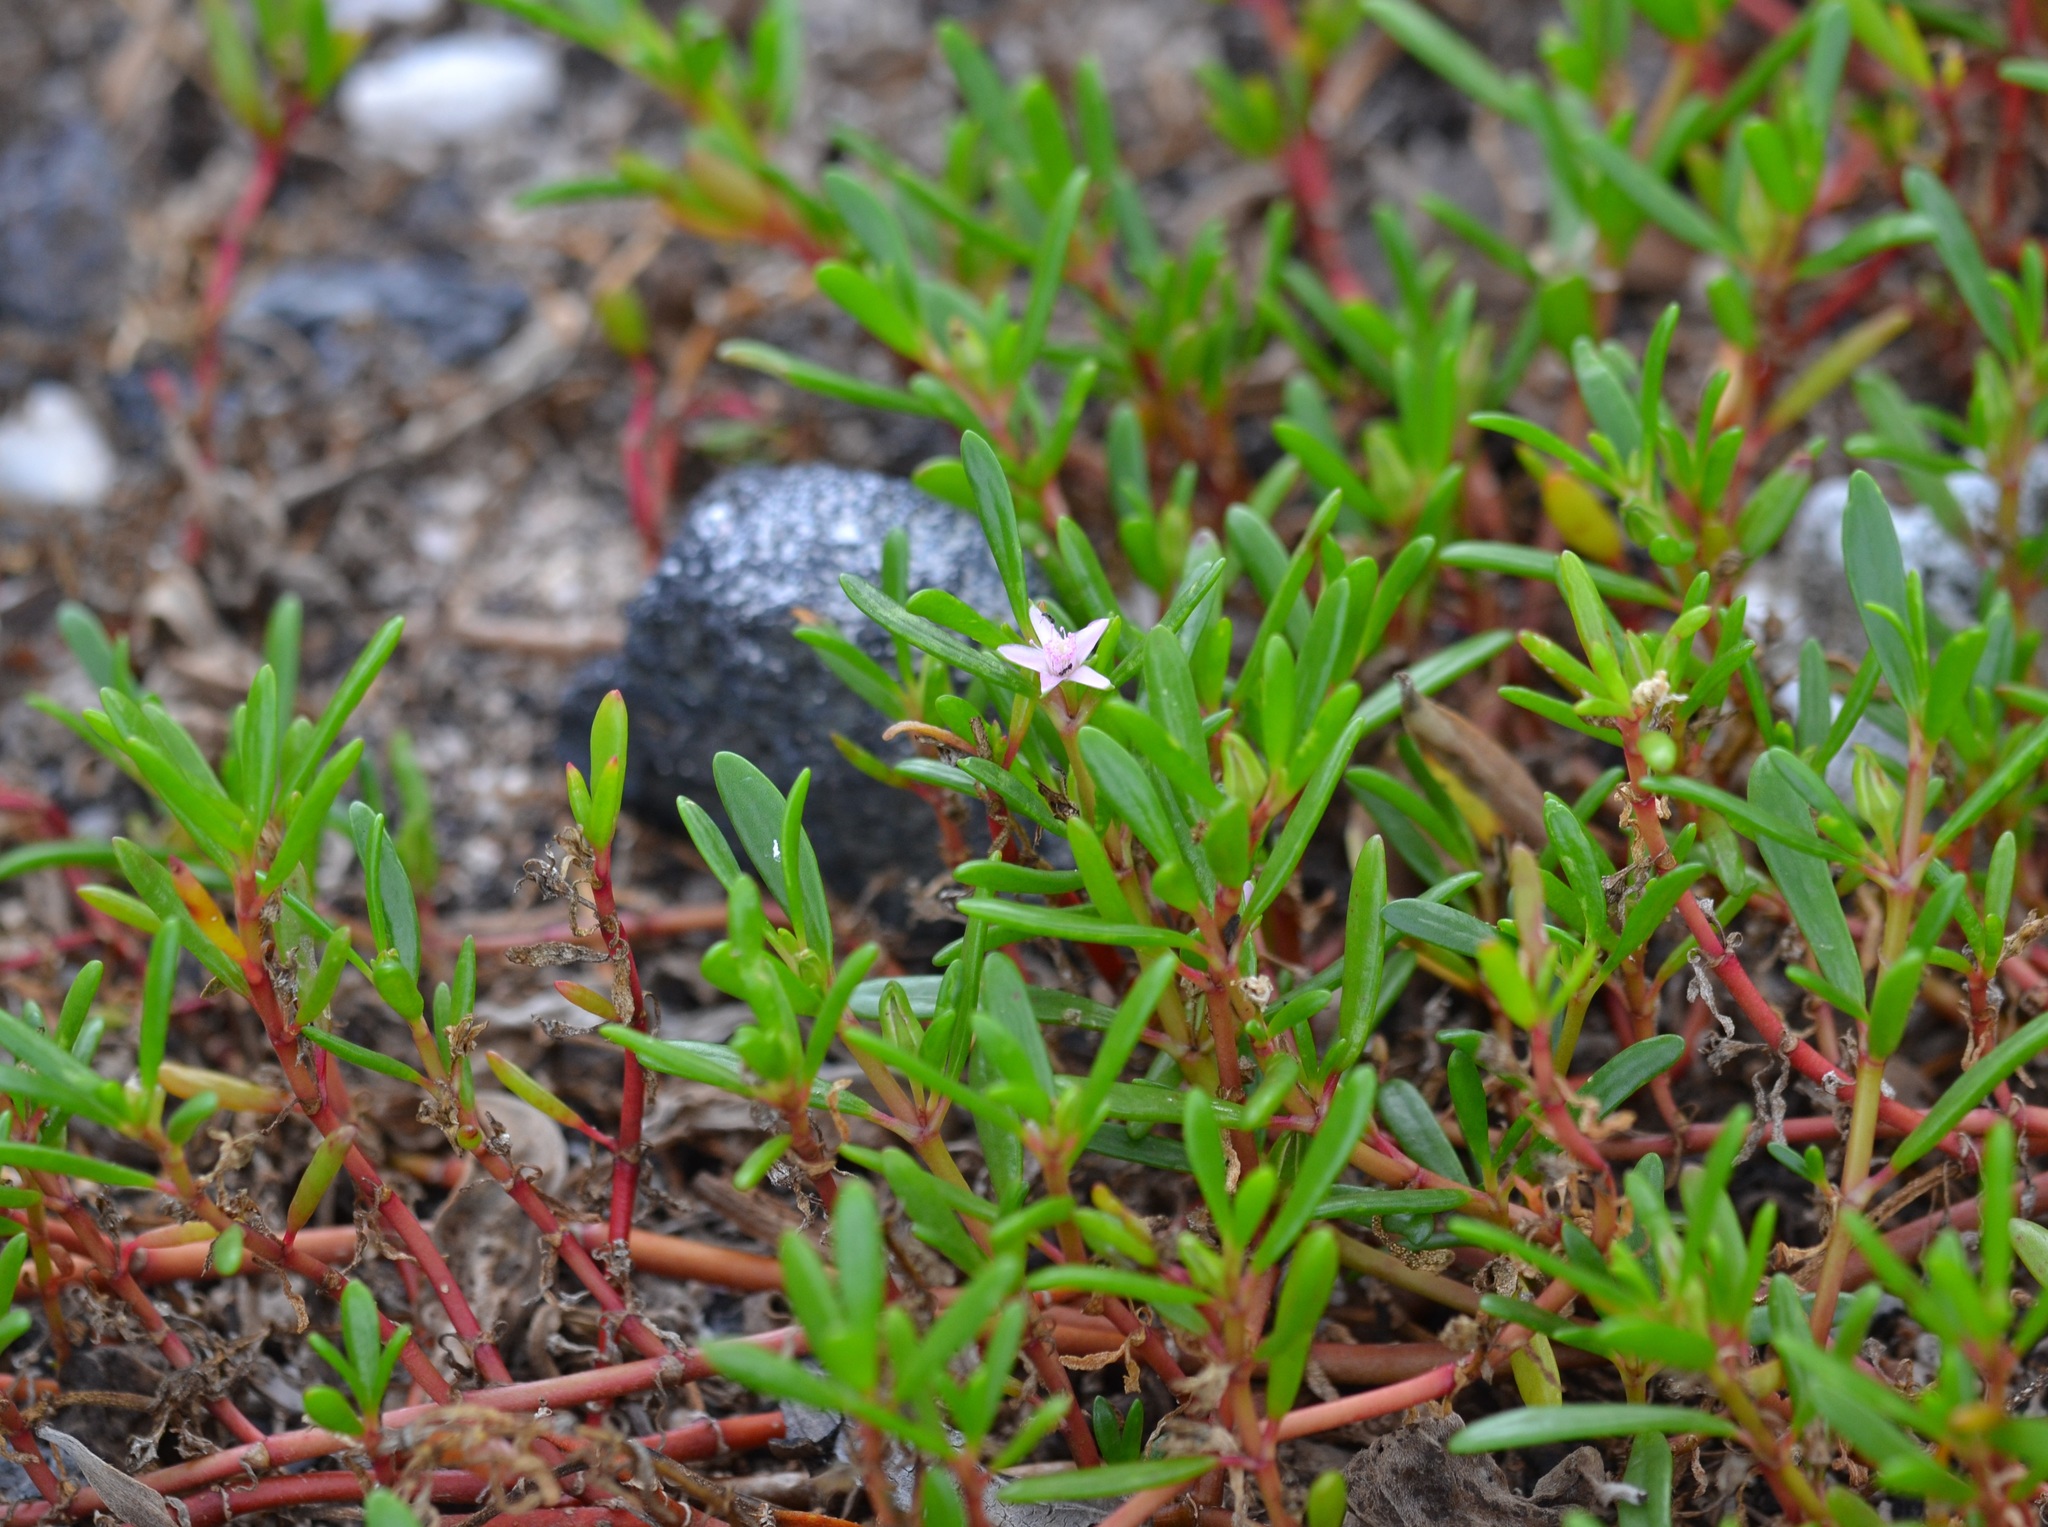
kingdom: Plantae
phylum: Tracheophyta
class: Magnoliopsida
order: Caryophyllales
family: Aizoaceae
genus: Sesuvium
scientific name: Sesuvium portulacastrum
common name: Sea-purslane
